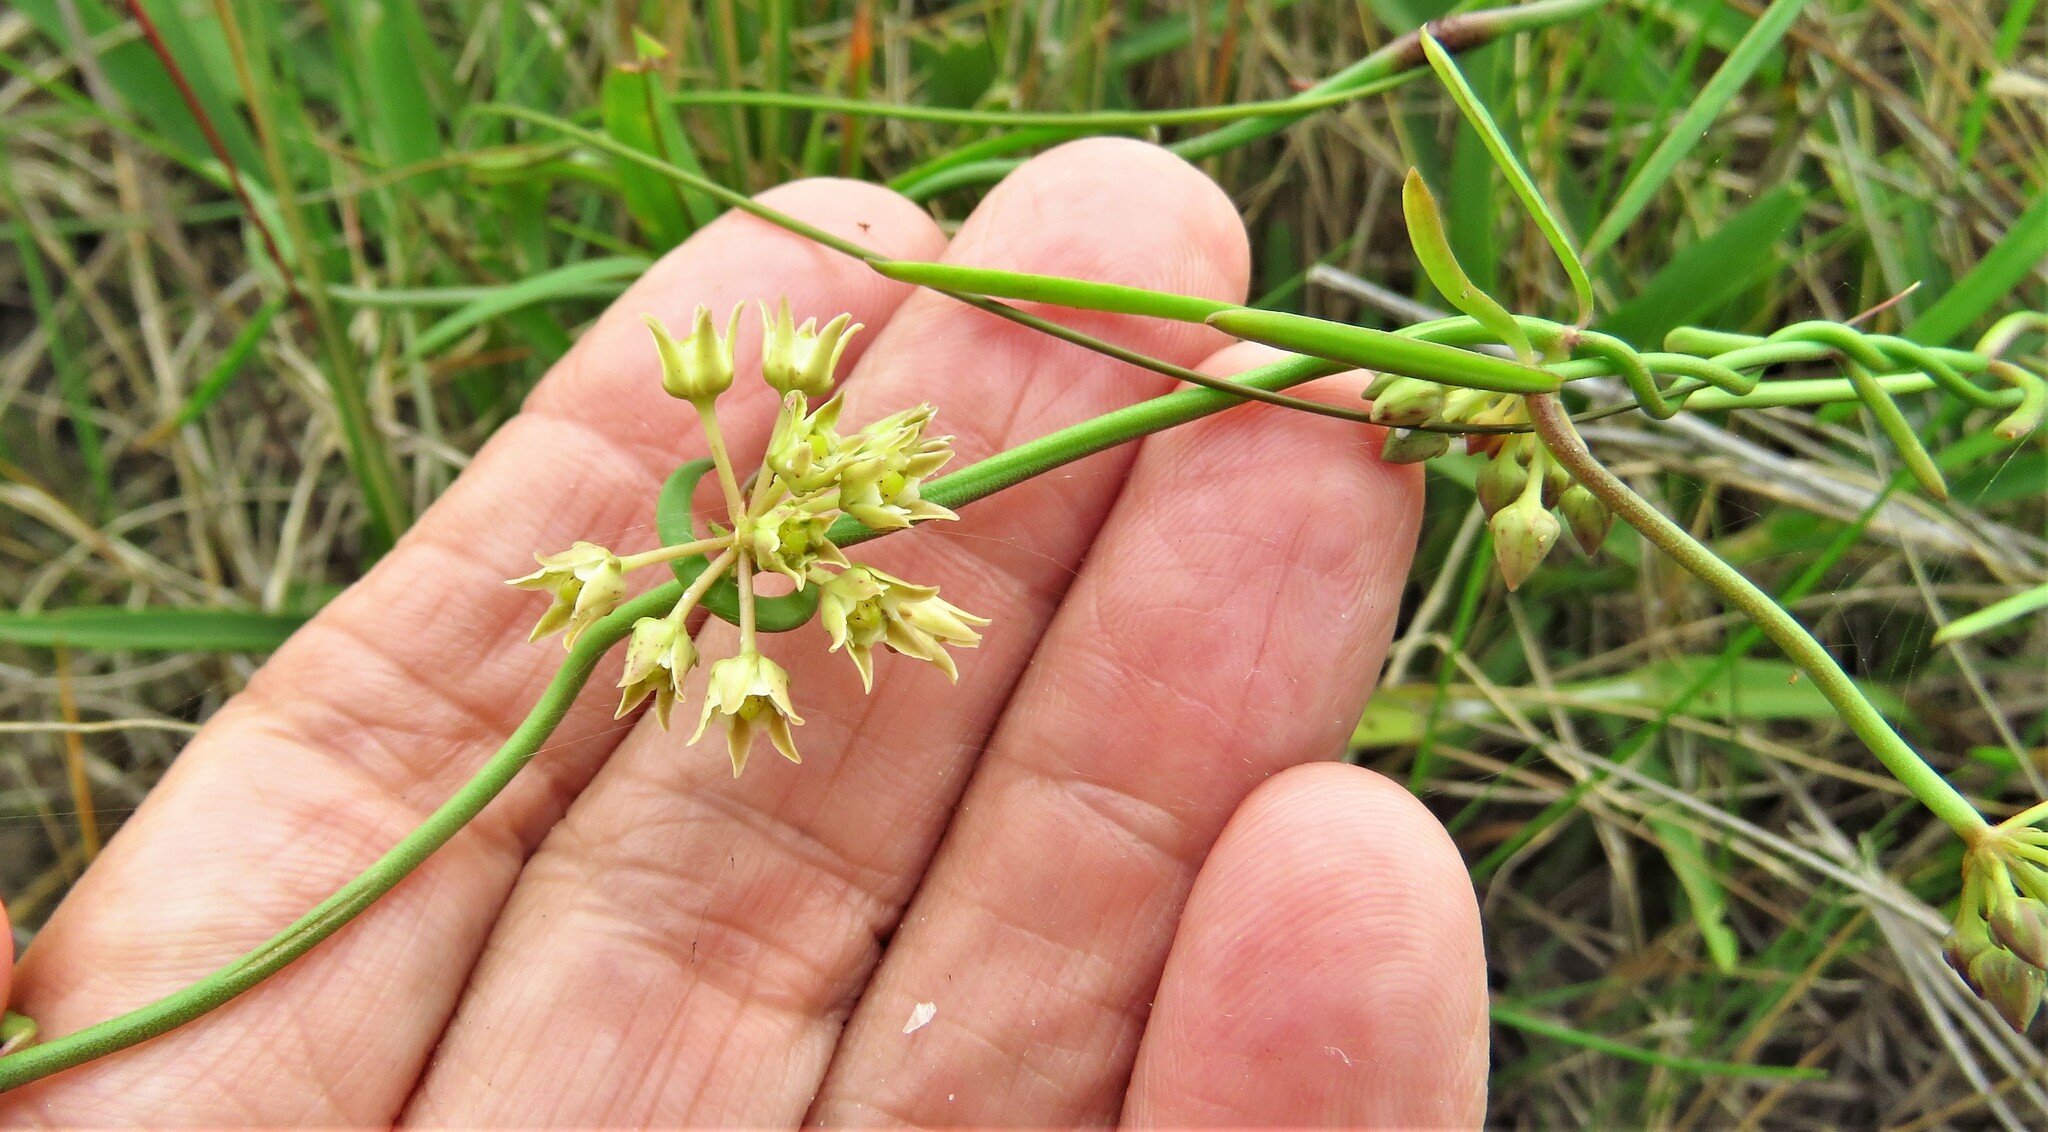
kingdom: Plantae
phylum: Tracheophyta
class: Magnoliopsida
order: Gentianales
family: Apocynaceae
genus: Pattalias
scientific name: Pattalias
